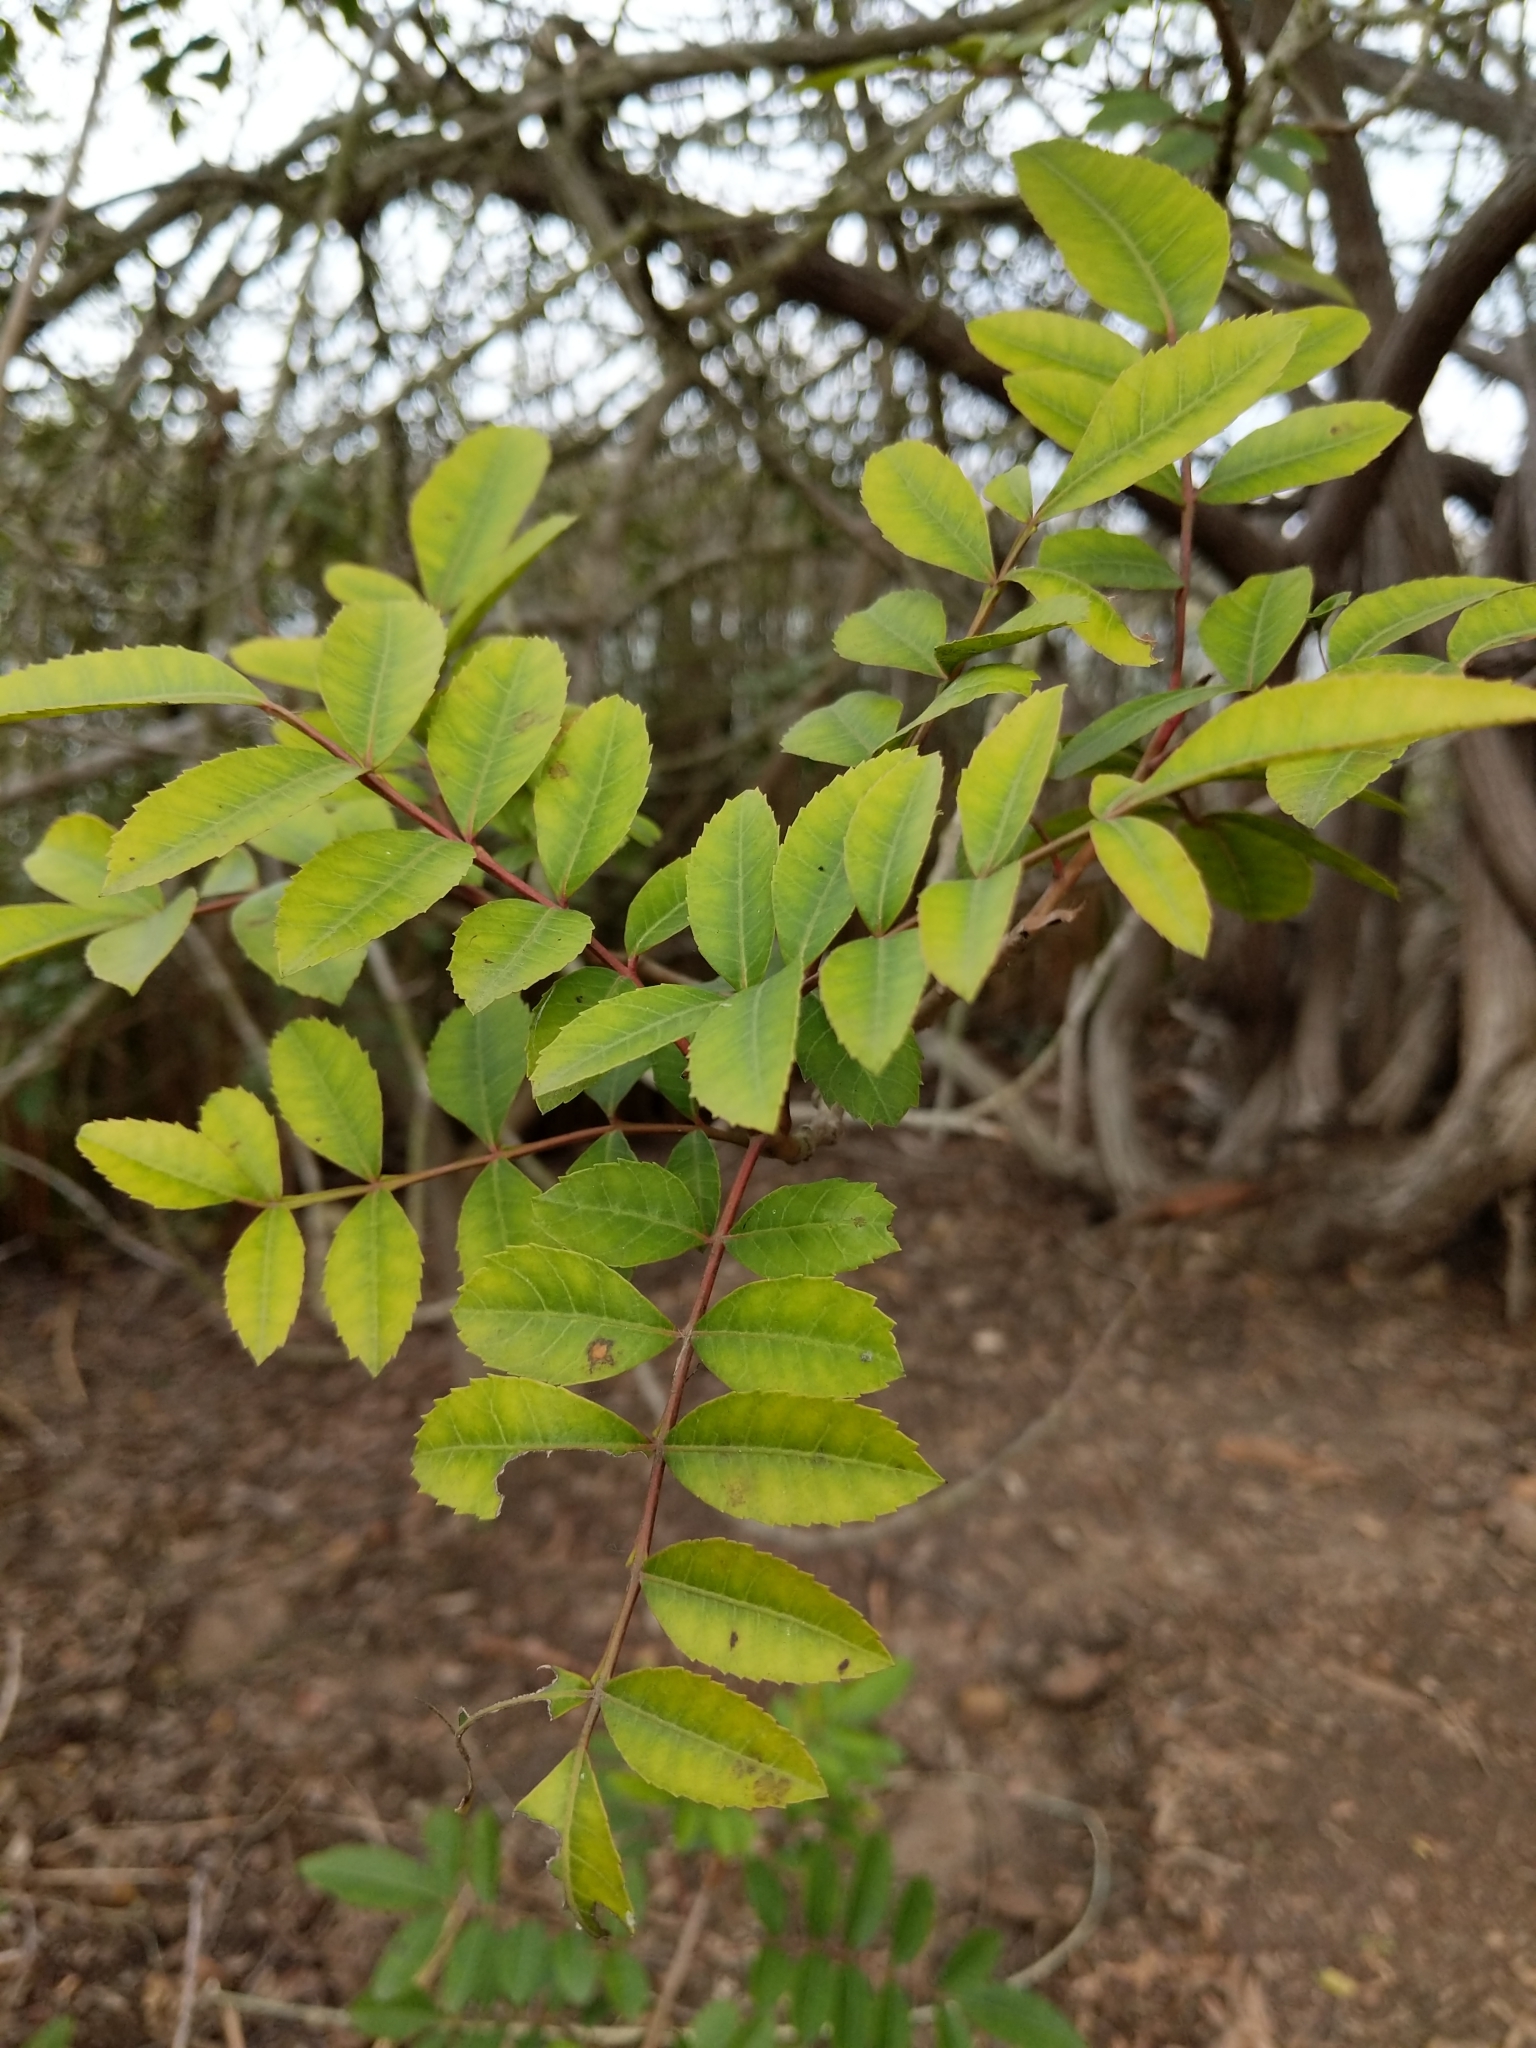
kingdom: Plantae
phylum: Tracheophyta
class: Magnoliopsida
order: Sapindales
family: Anacardiaceae
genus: Schinus
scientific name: Schinus terebinthifolia
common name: Brazilian peppertree
